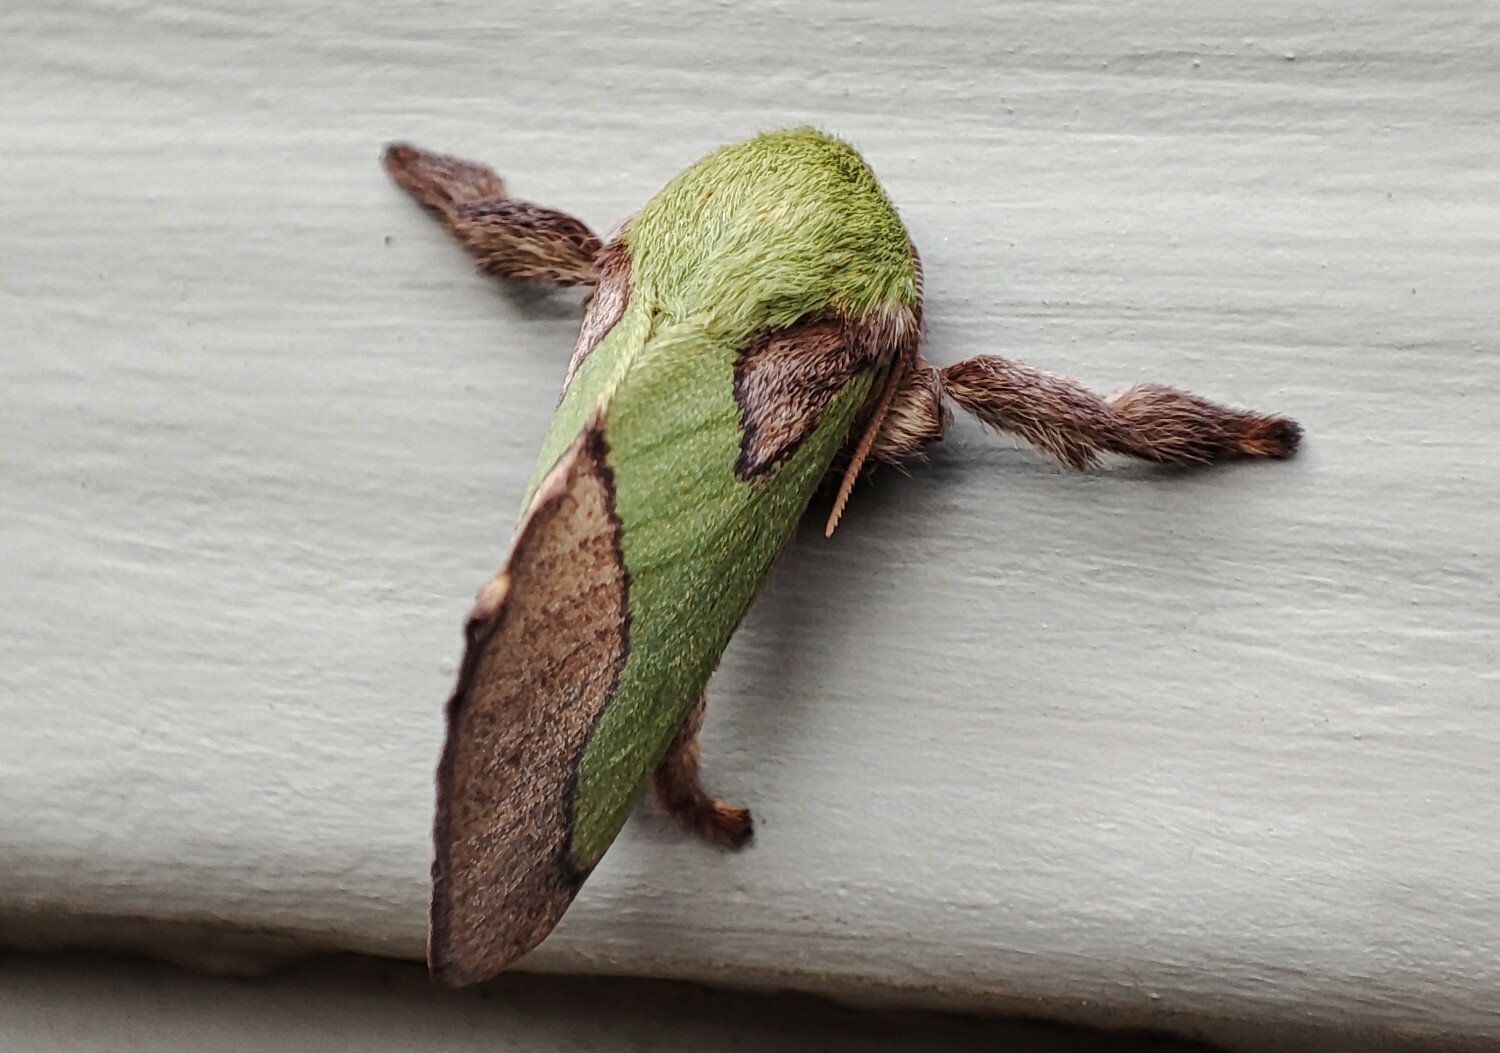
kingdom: Animalia
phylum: Arthropoda
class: Insecta
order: Lepidoptera
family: Limacodidae
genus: Parasa
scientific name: Parasa latistriga
